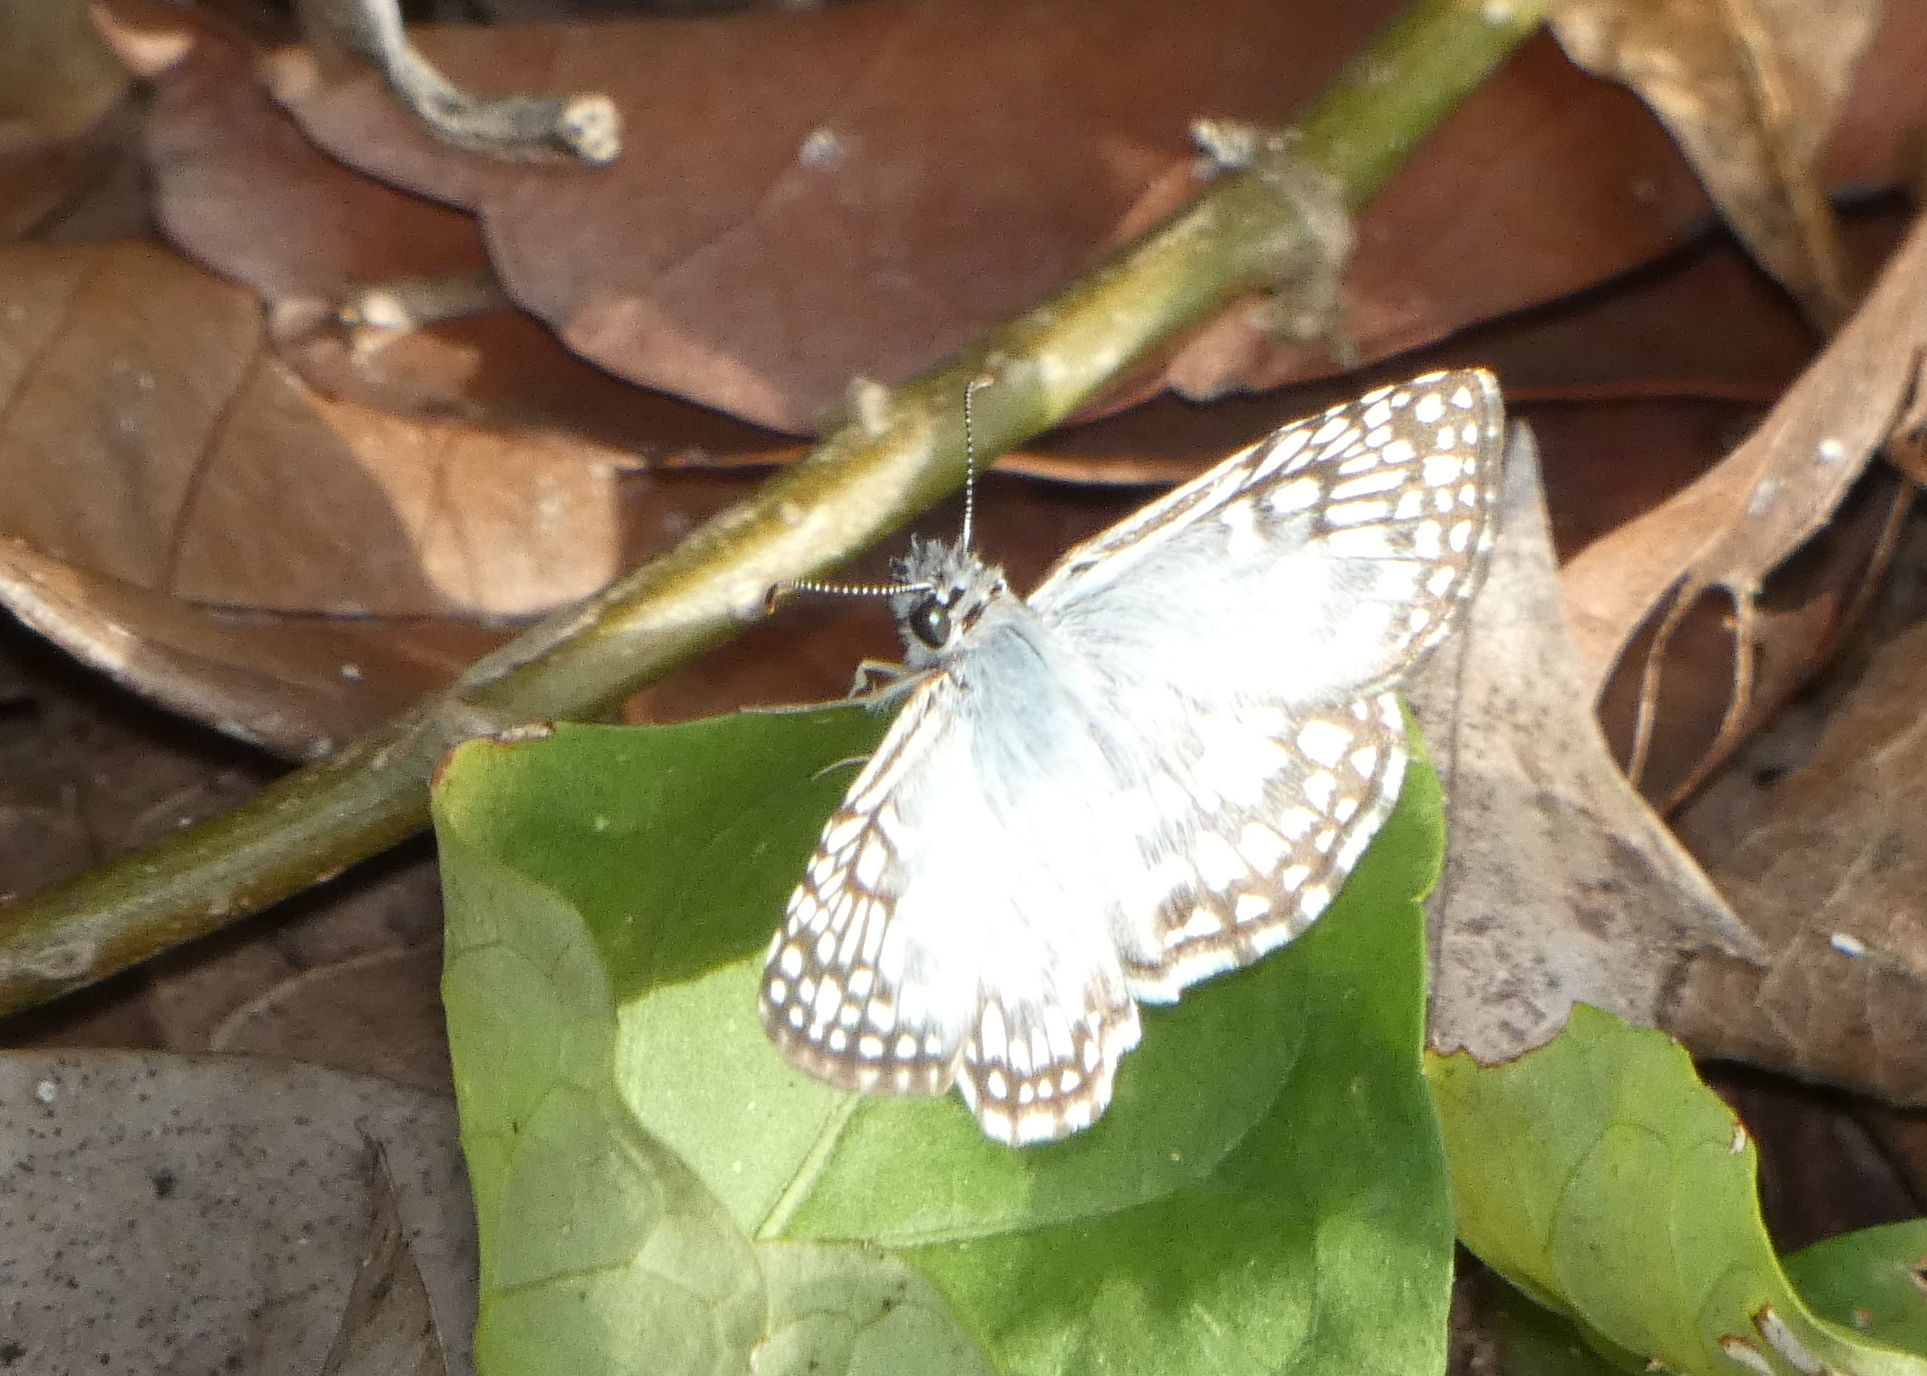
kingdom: Animalia
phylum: Arthropoda
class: Insecta
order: Lepidoptera
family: Hesperiidae
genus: Pyrgus
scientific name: Pyrgus oileus
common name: Tropical checkered-skipper
